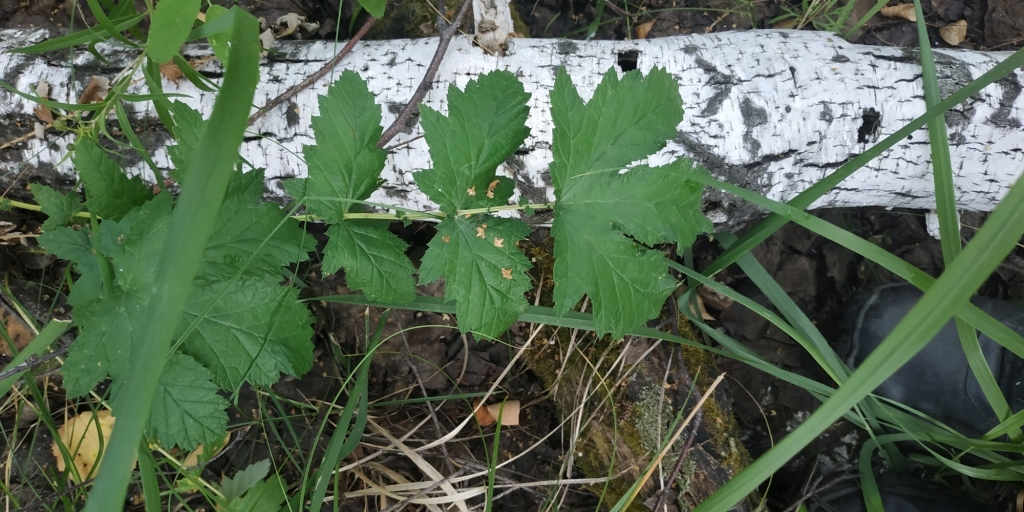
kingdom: Plantae
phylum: Tracheophyta
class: Magnoliopsida
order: Rosales
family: Rosaceae
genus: Filipendula
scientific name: Filipendula ulmaria
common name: Meadowsweet
